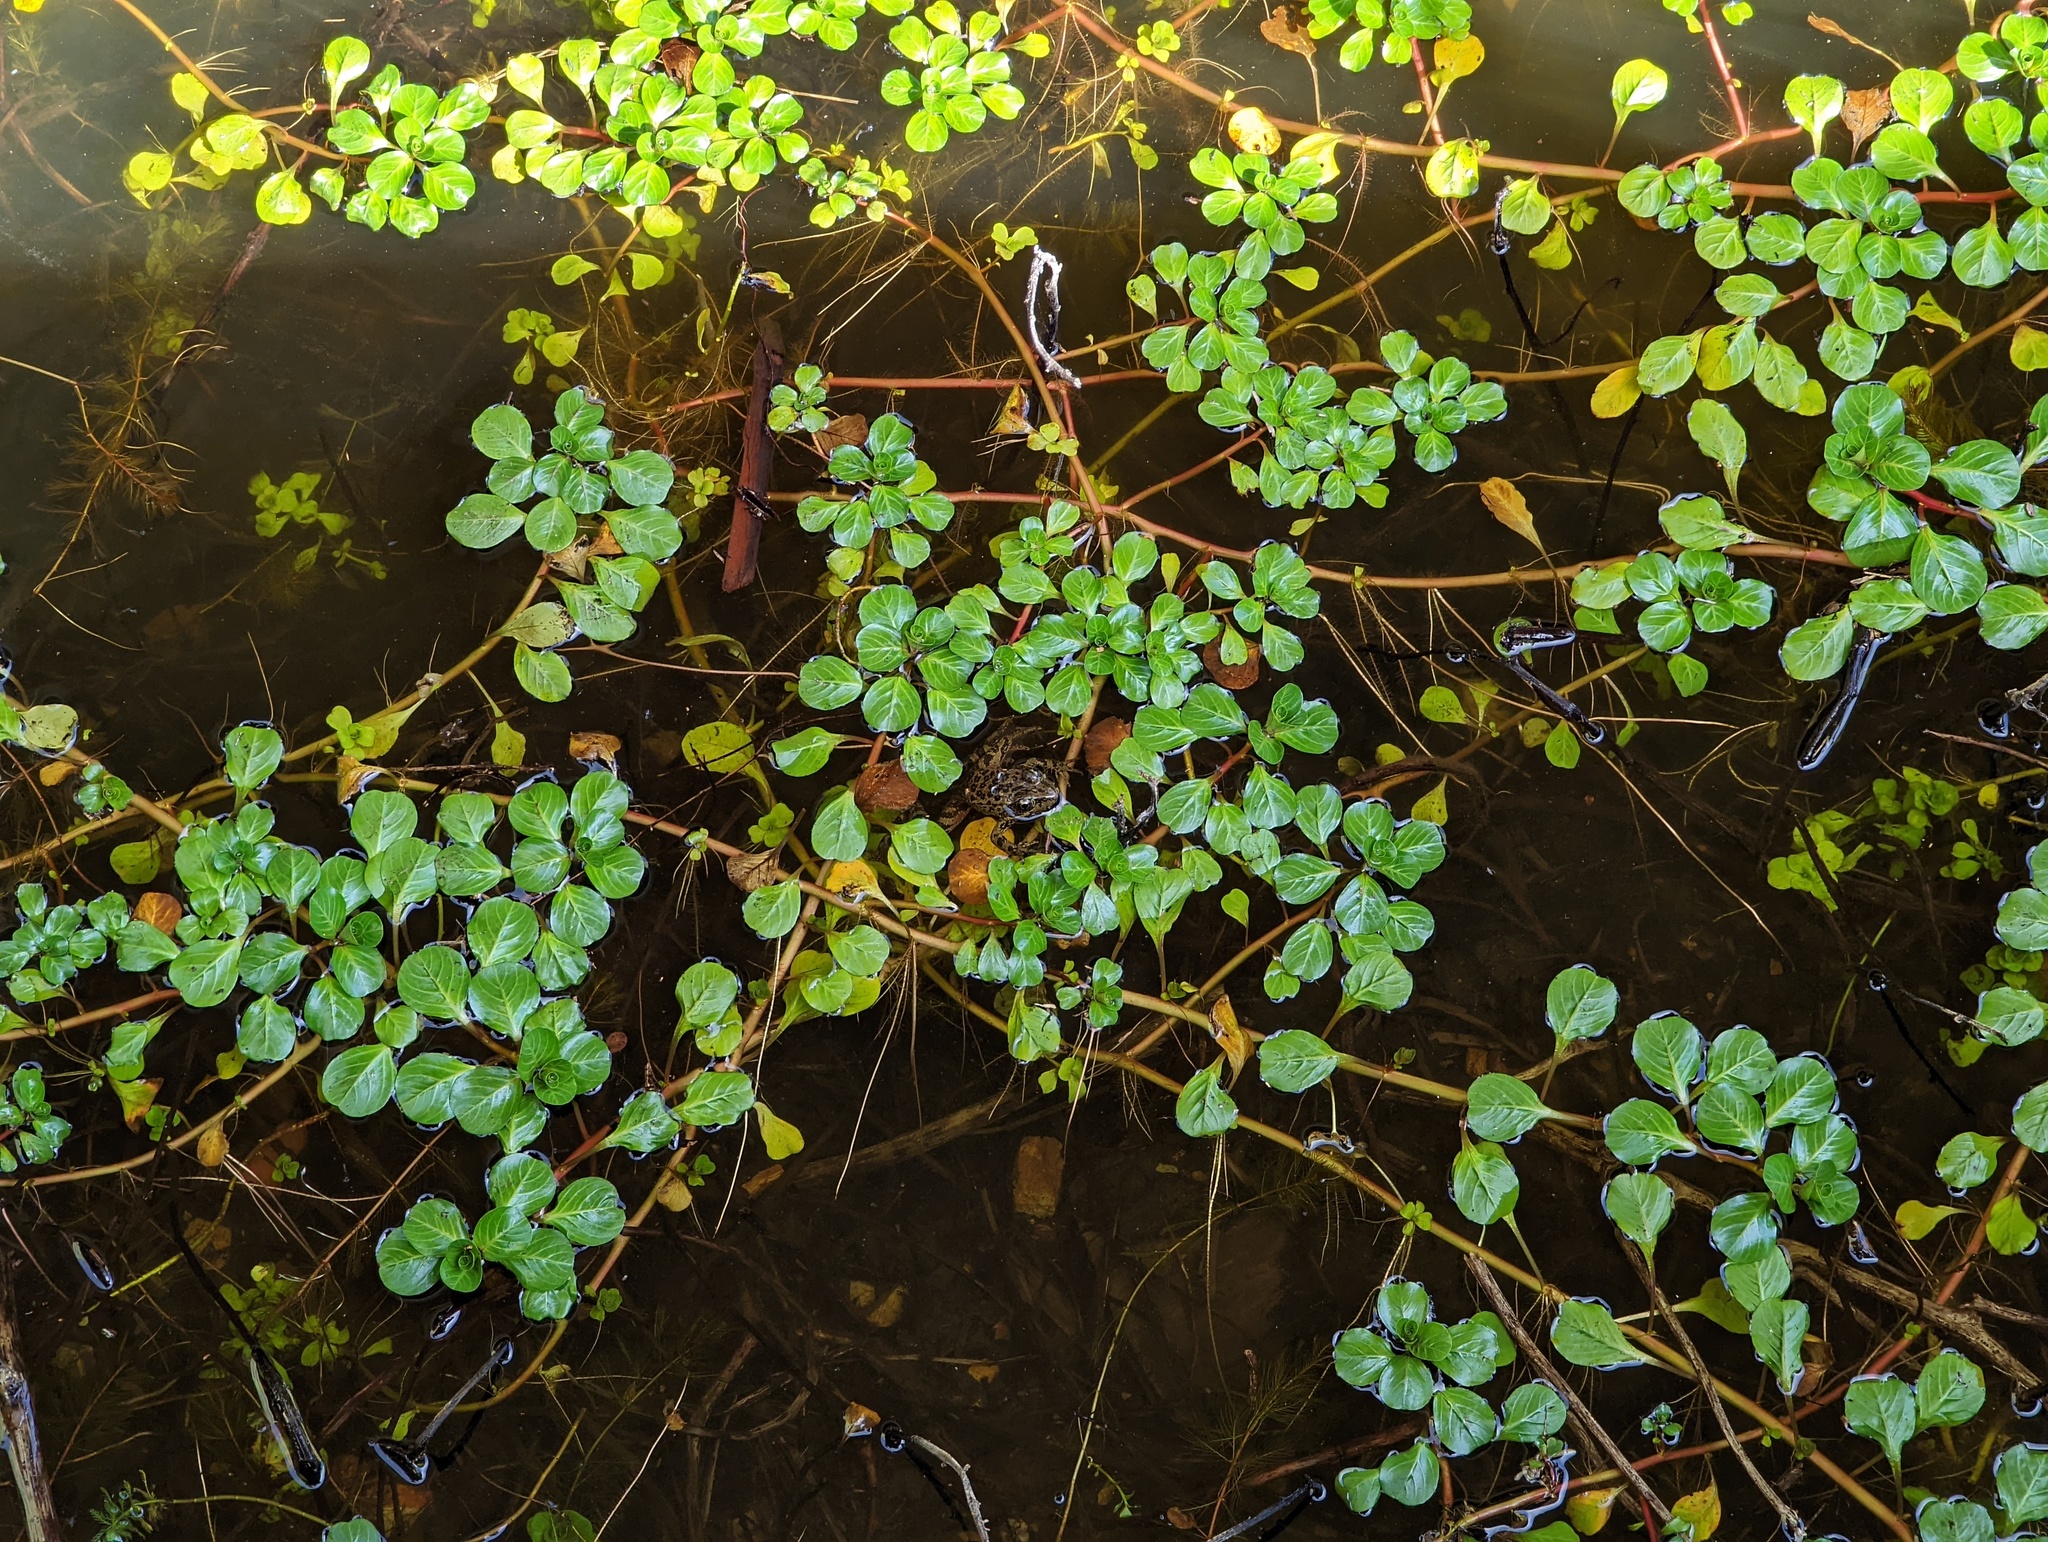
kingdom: Animalia
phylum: Chordata
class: Amphibia
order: Anura
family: Ranidae
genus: Rana
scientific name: Rana draytonii
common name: California red-legged frog
